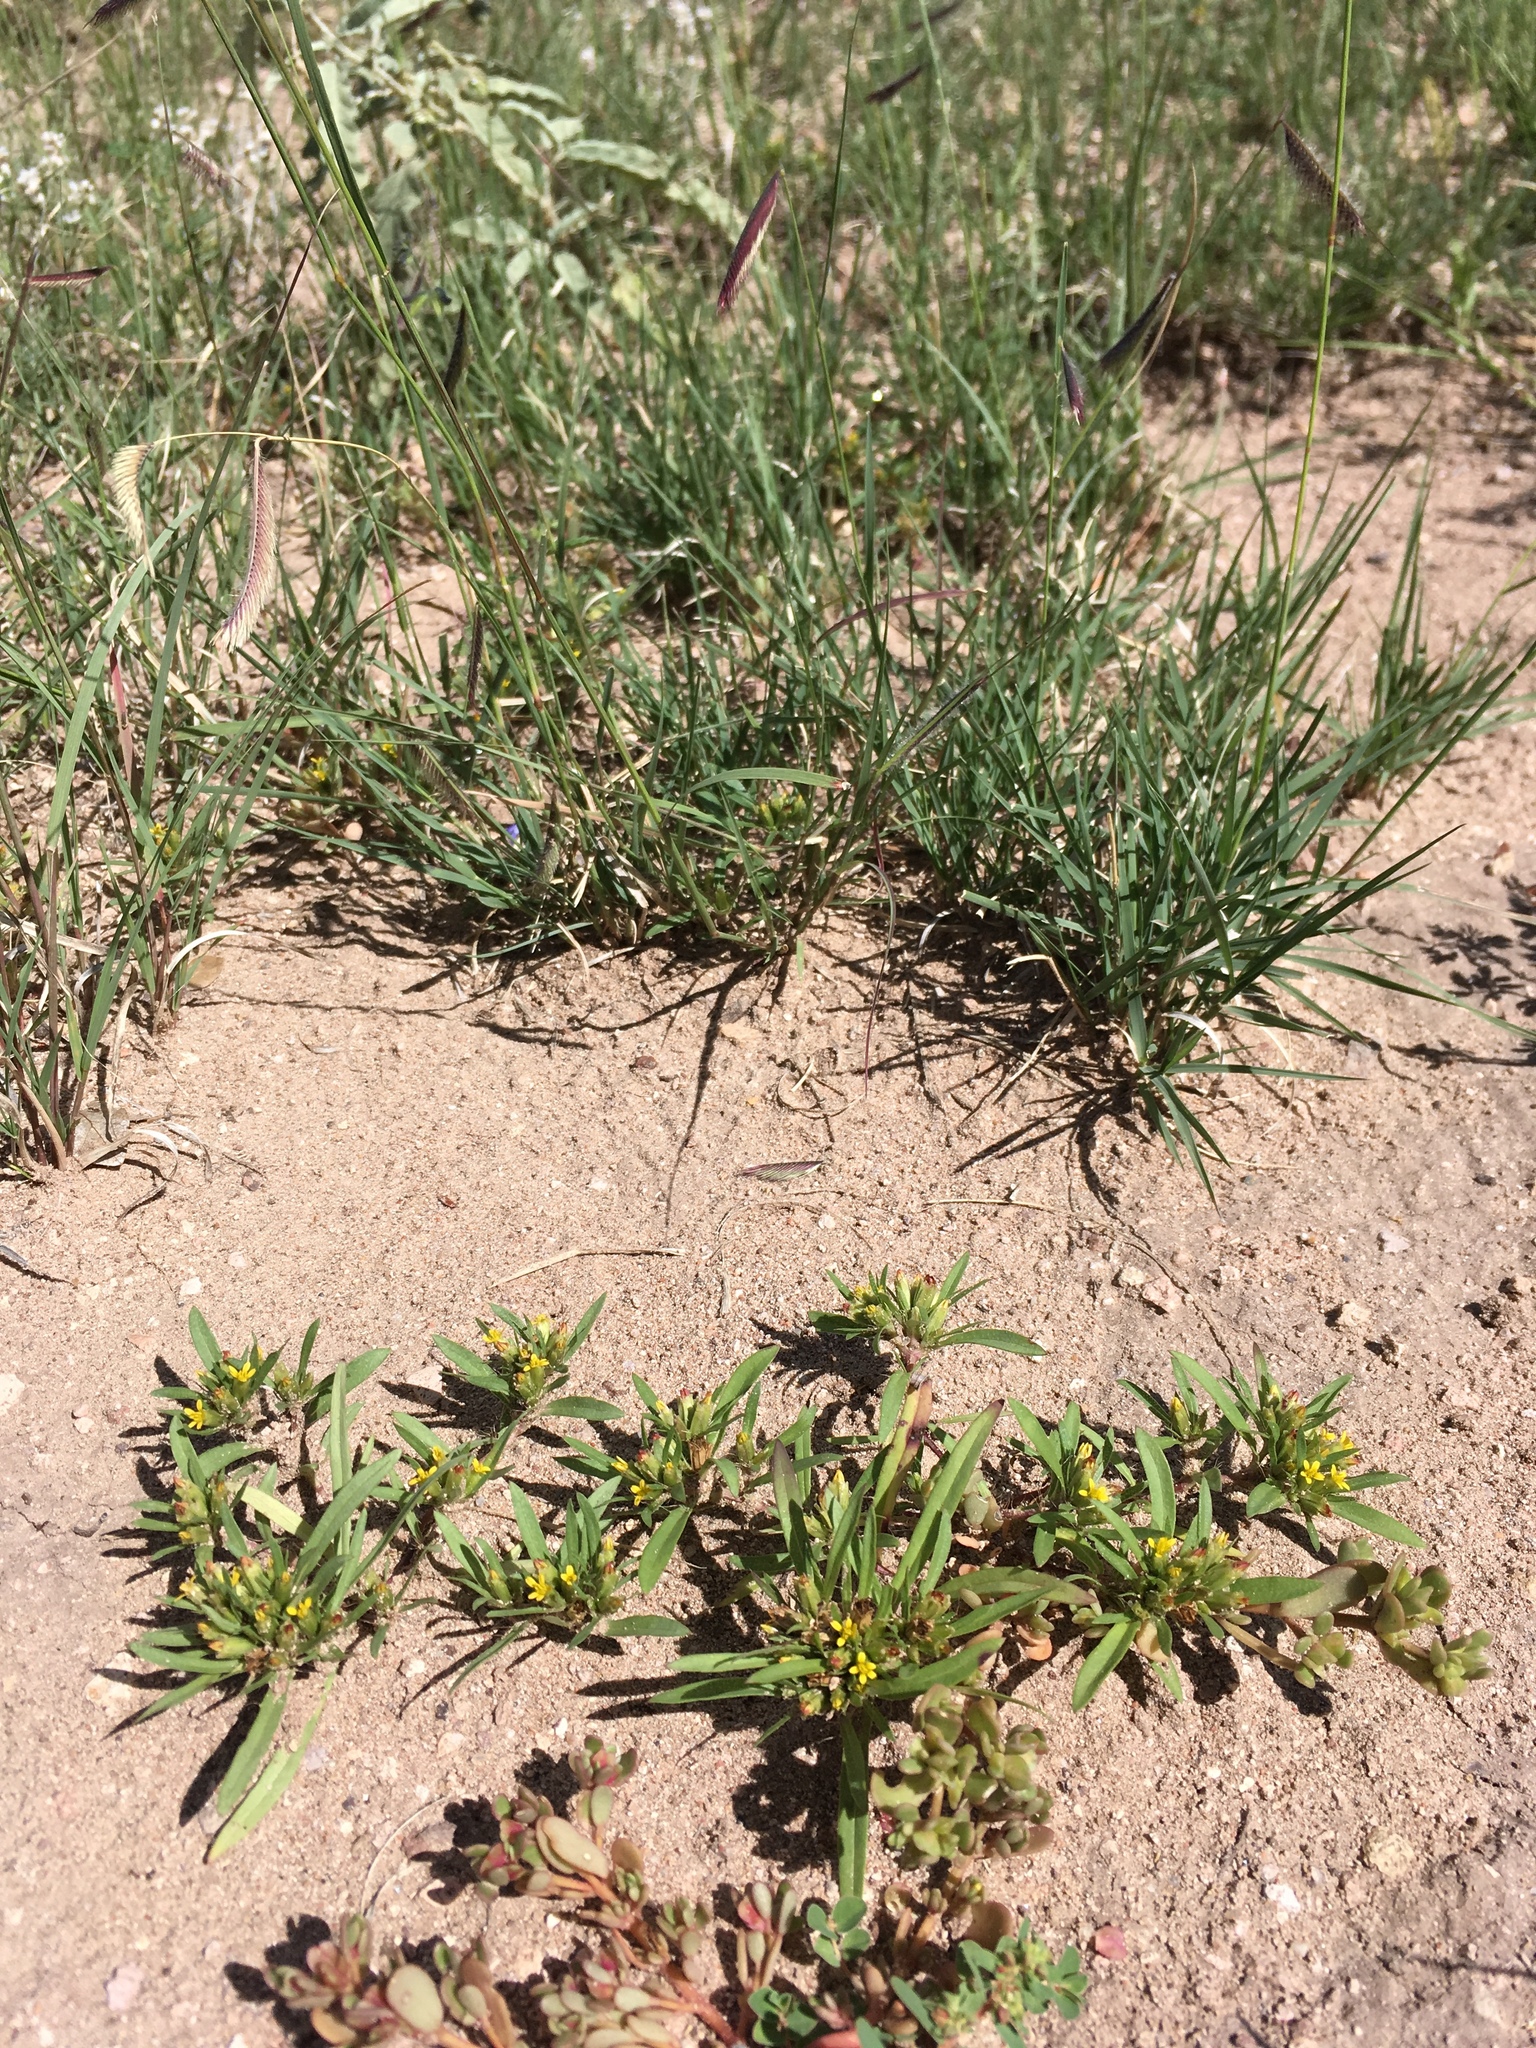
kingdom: Plantae
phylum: Tracheophyta
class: Magnoliopsida
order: Asterales
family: Asteraceae
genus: Pectis
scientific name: Pectis prostrata
